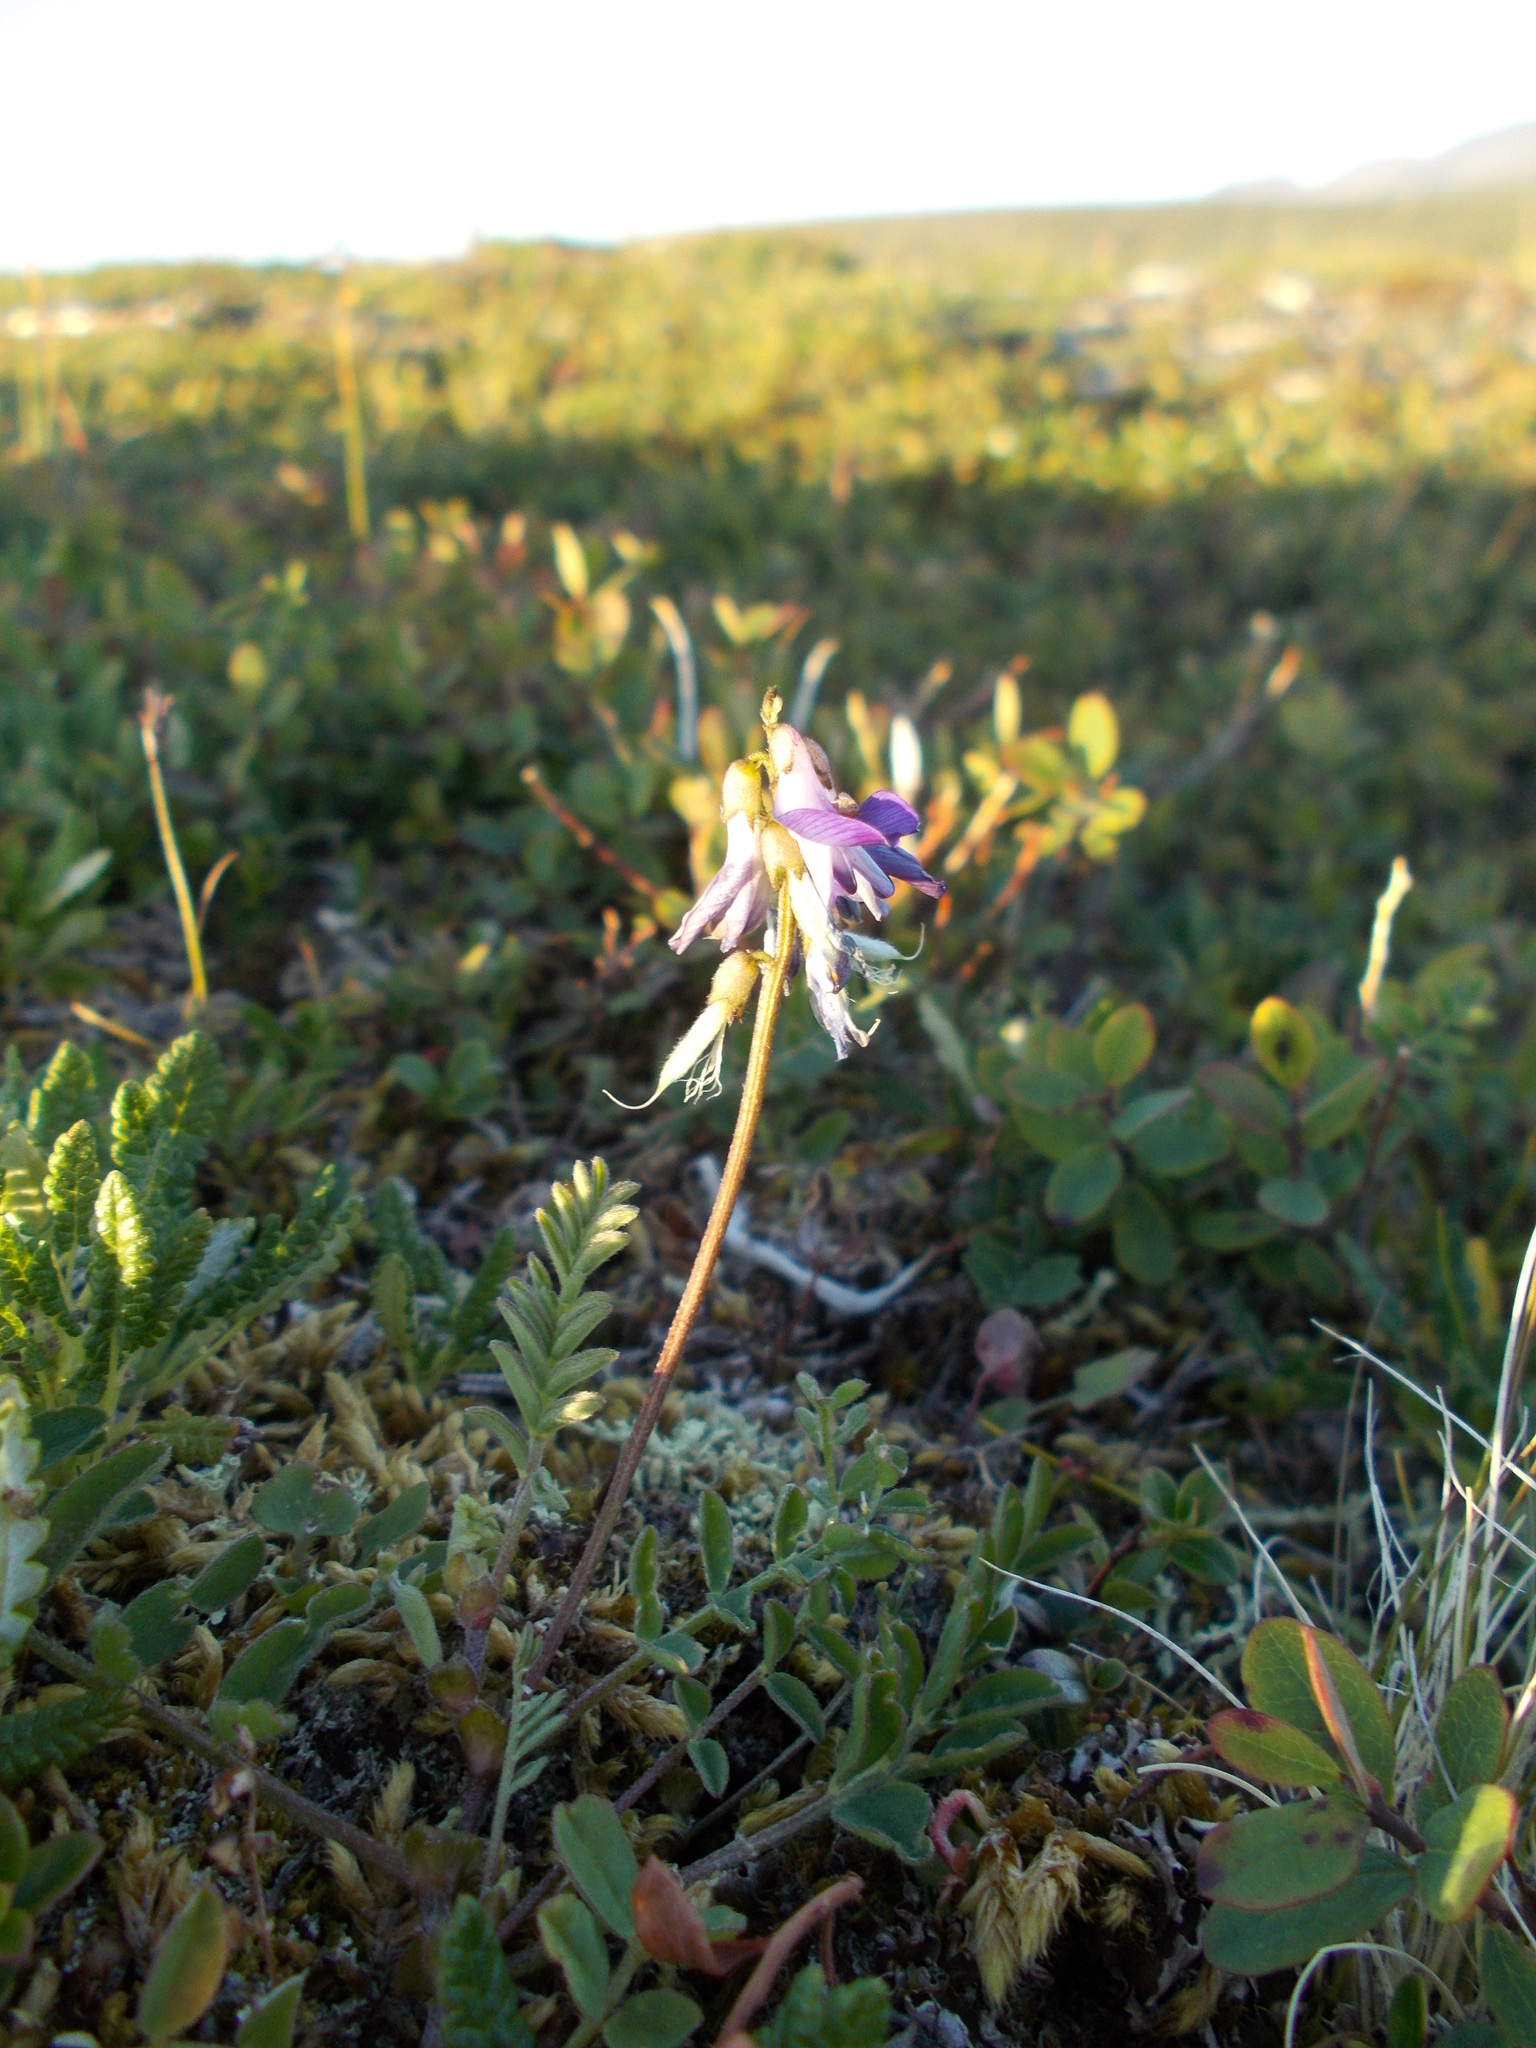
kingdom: Plantae
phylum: Tracheophyta
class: Magnoliopsida
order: Fabales
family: Fabaceae
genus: Astragalus
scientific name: Astragalus alpinus
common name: Alpine milk-vetch
